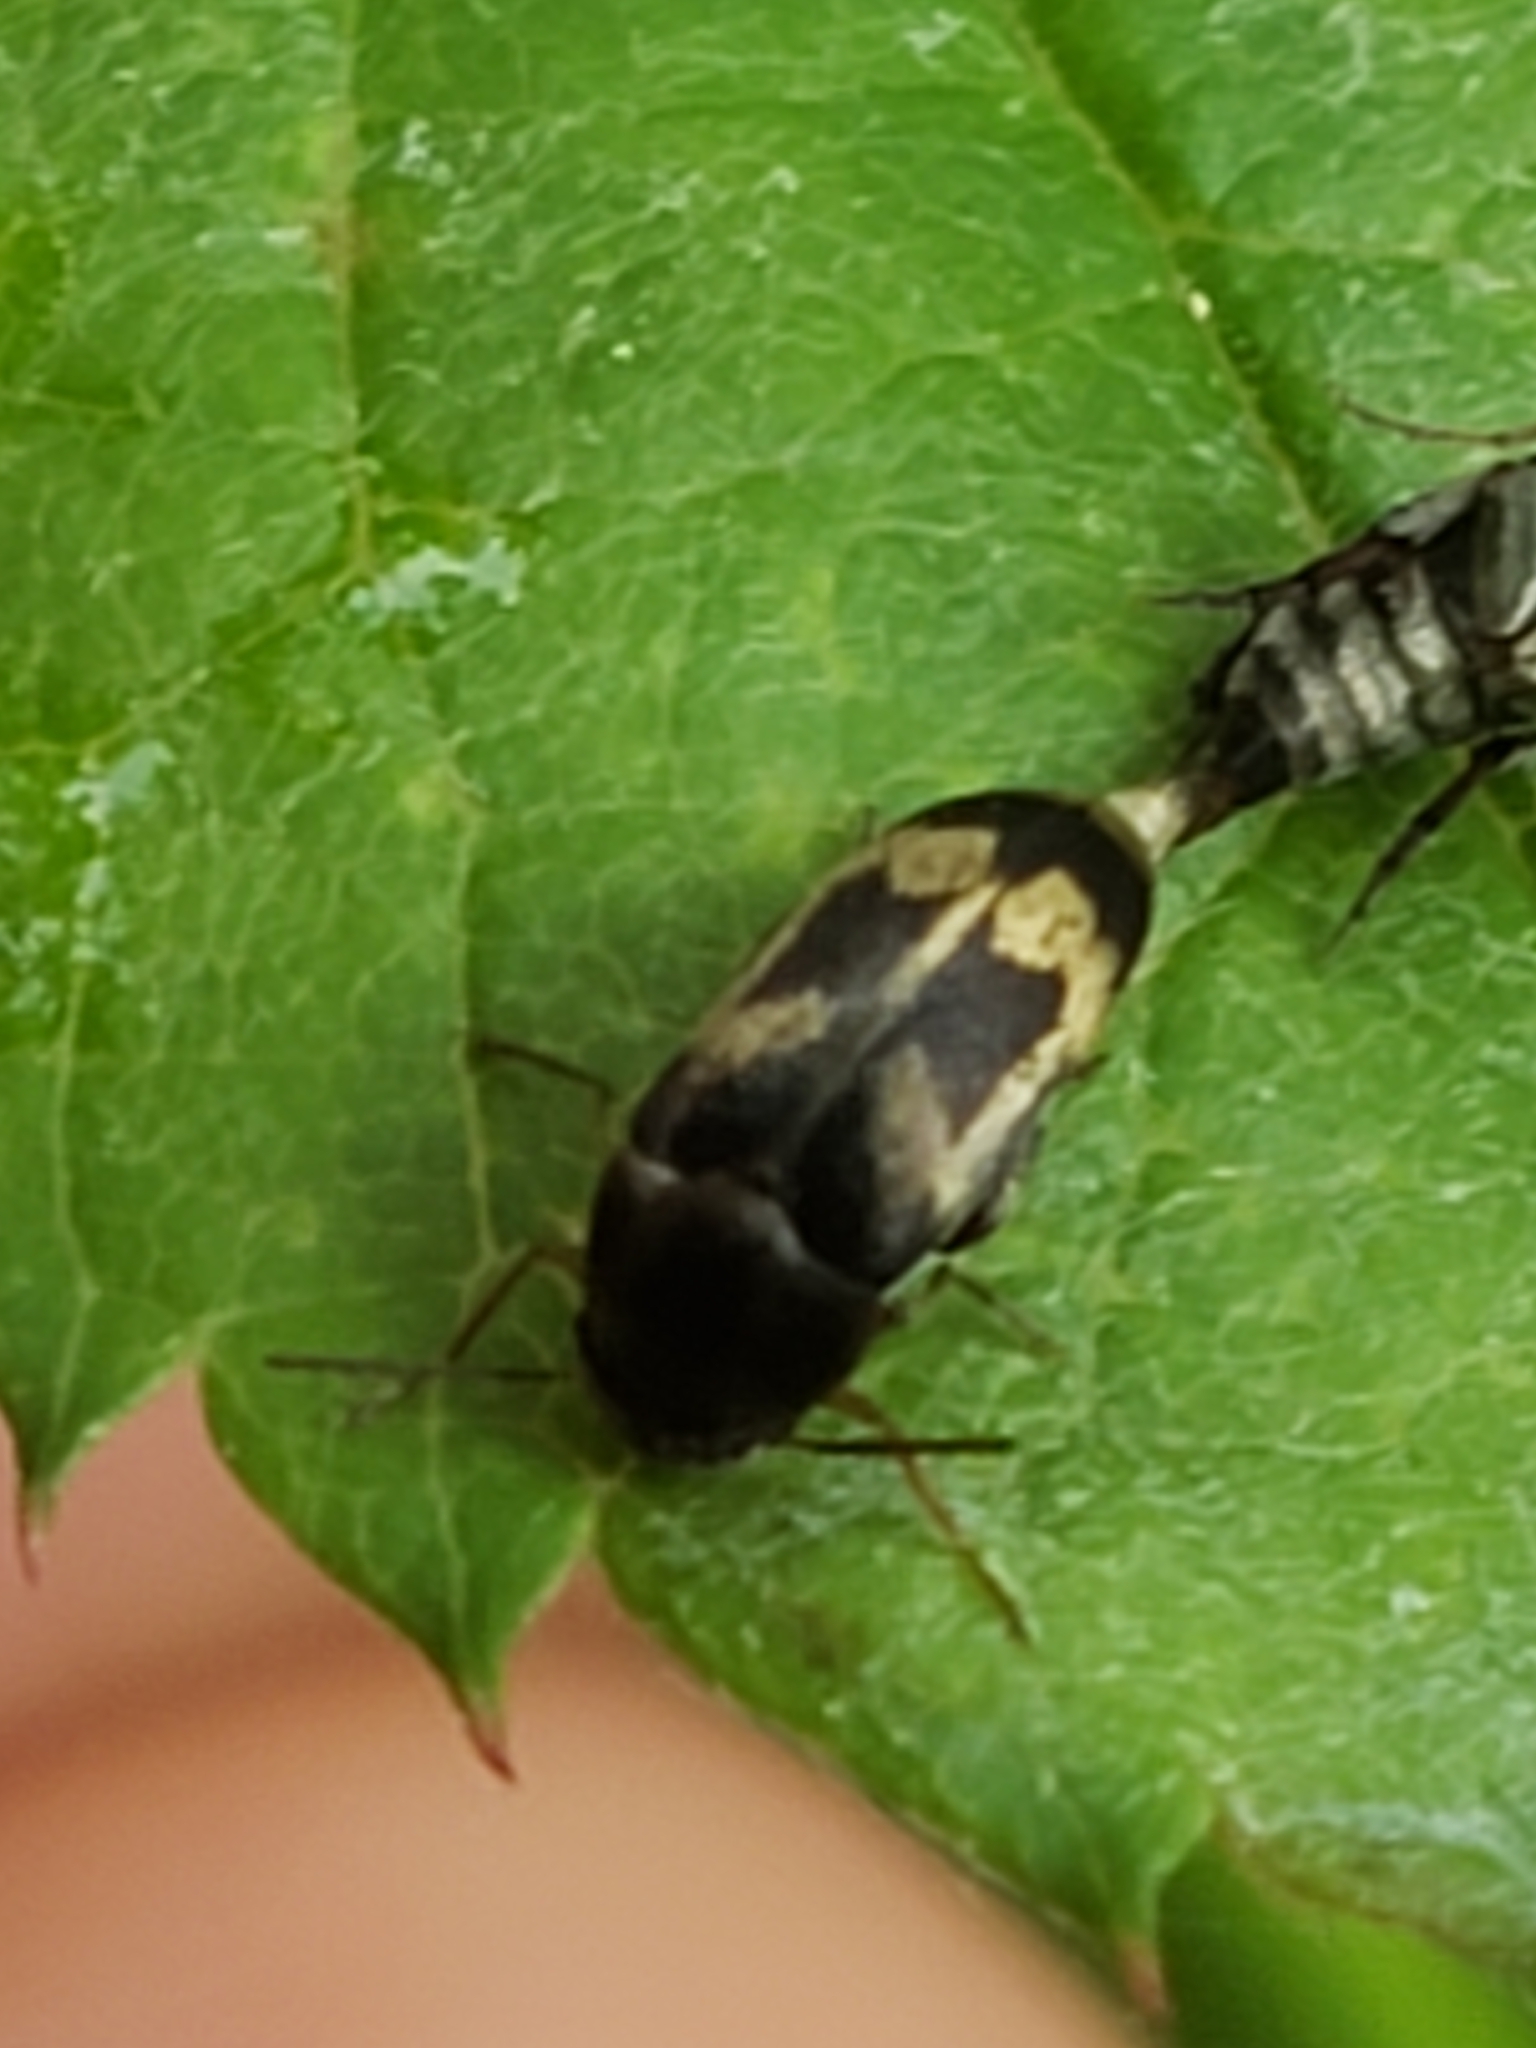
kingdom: Animalia
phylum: Arthropoda
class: Insecta
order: Coleoptera
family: Mordellidae
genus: Falsomordellistena
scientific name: Falsomordellistena hebraica
